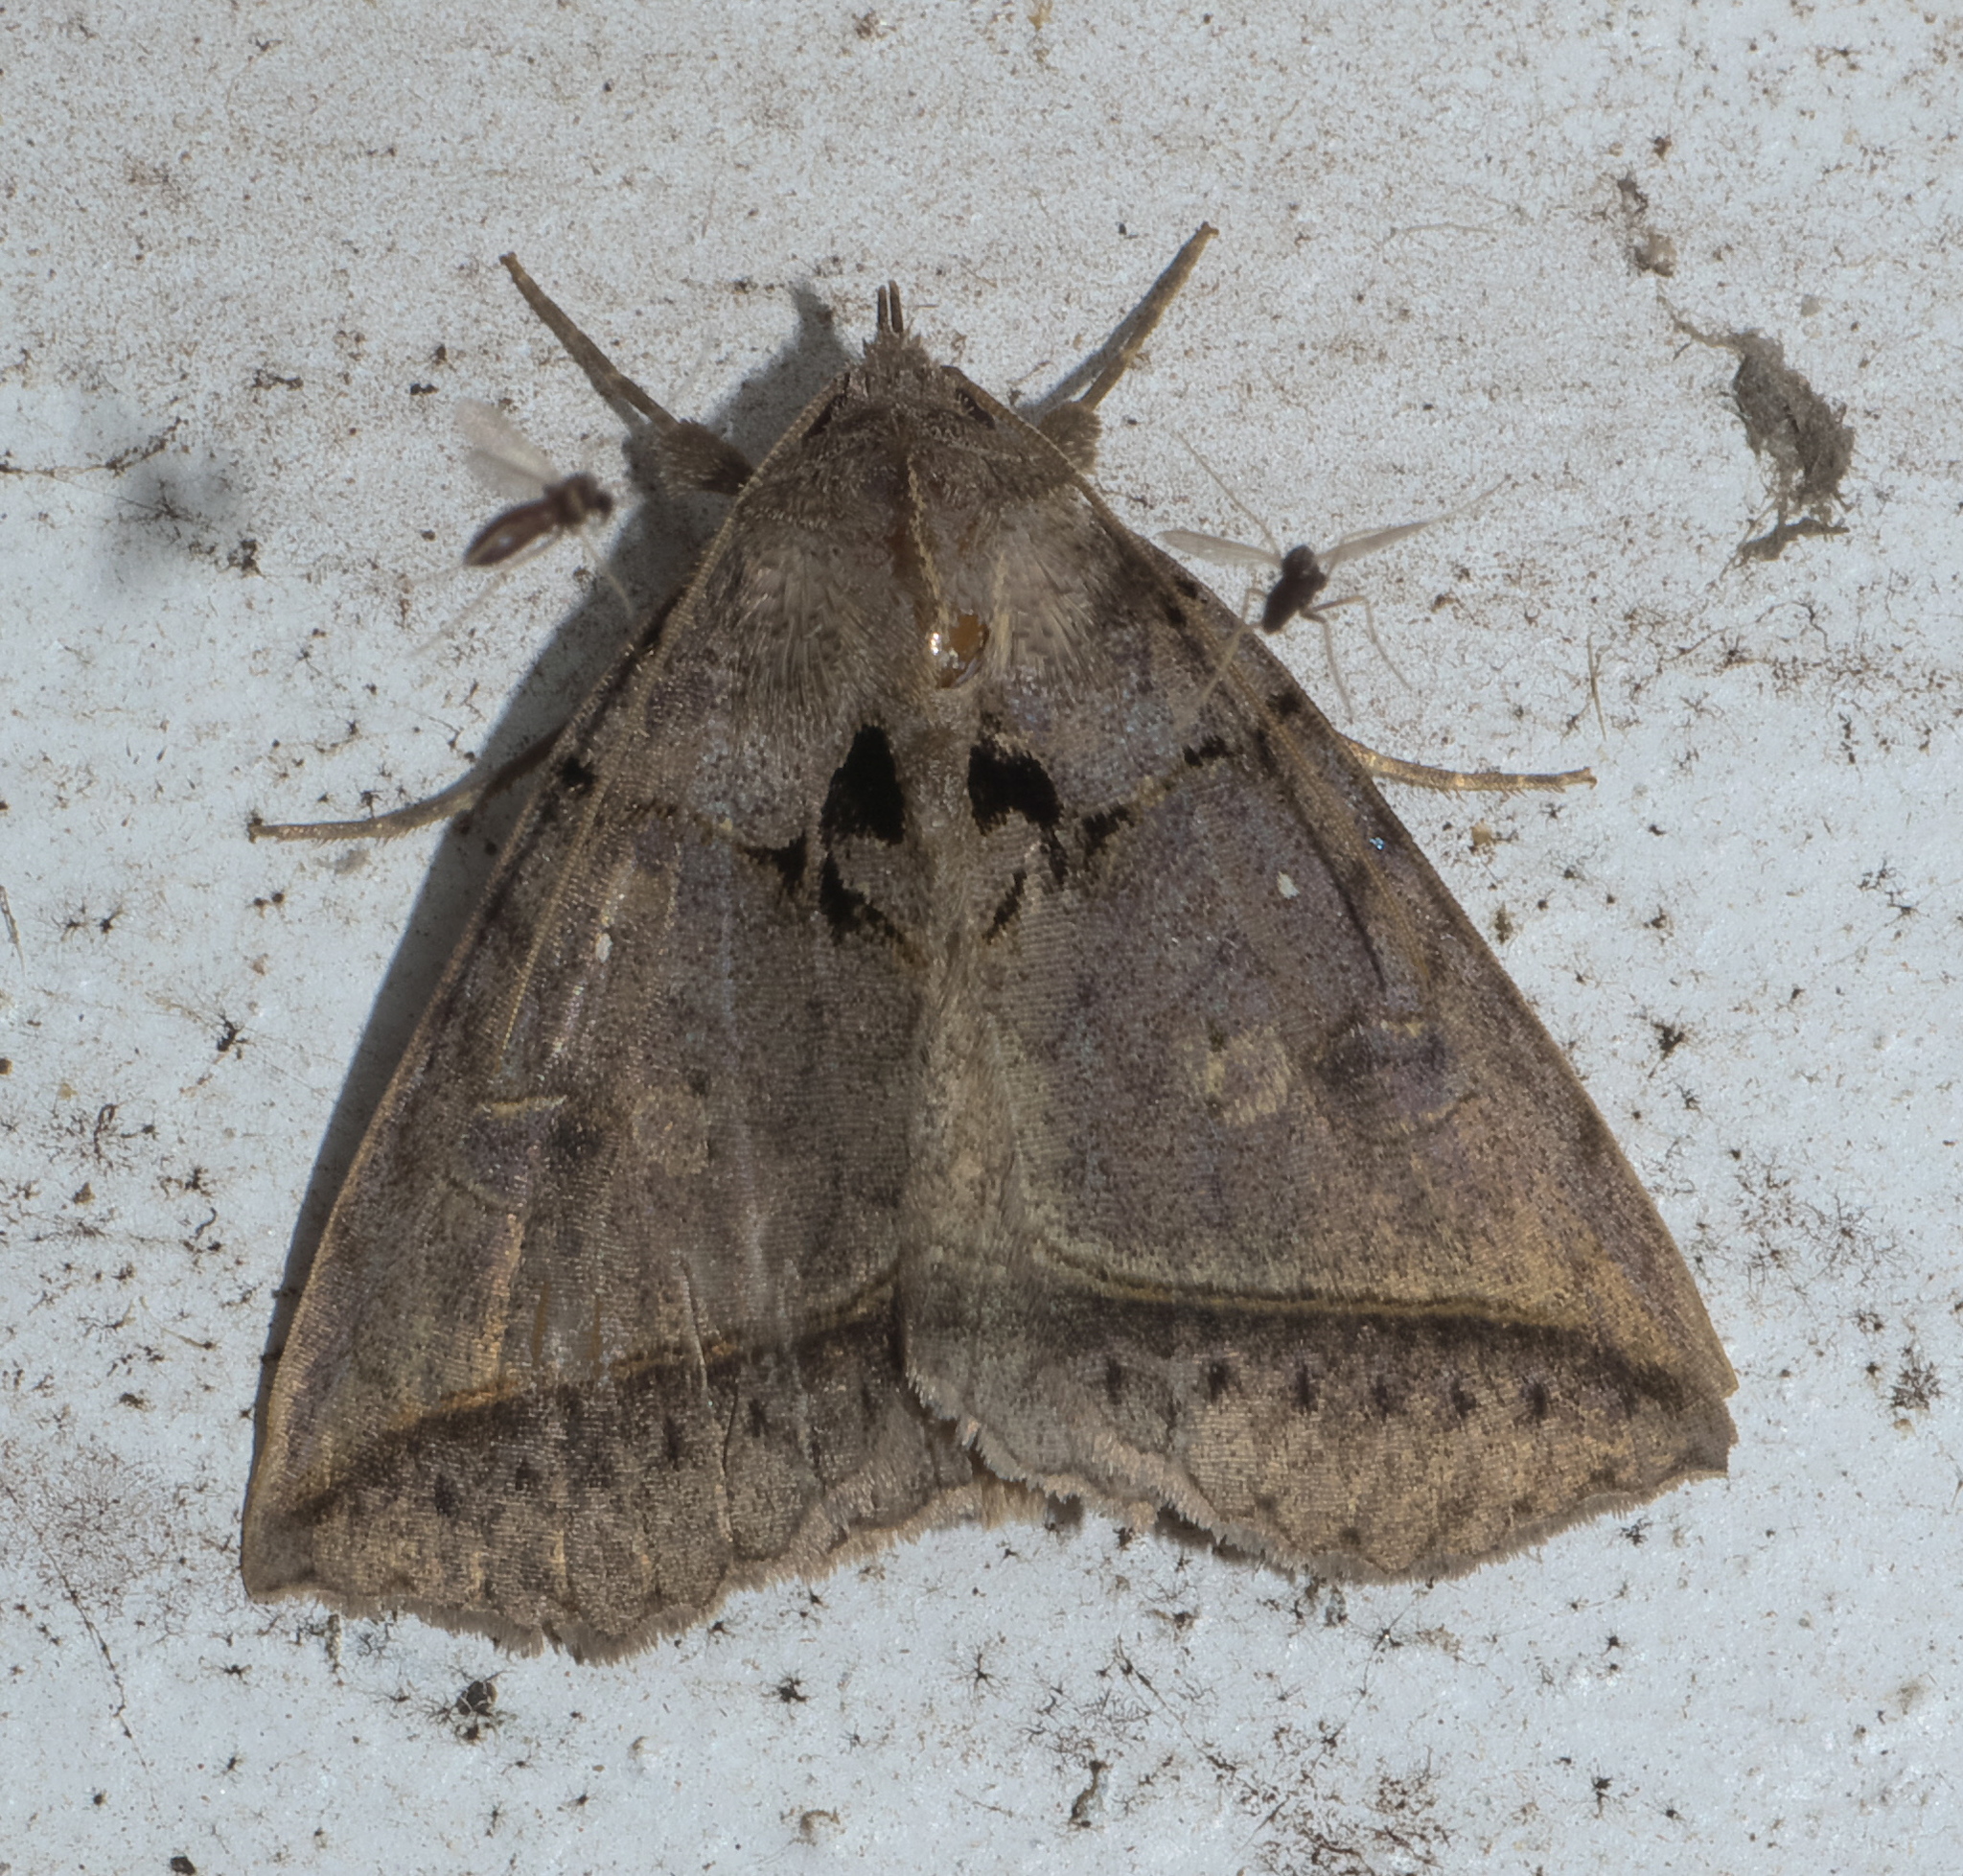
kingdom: Animalia
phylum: Arthropoda
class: Insecta
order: Lepidoptera
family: Erebidae
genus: Celiptera
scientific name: Celiptera frustulum
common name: Black bit moth
